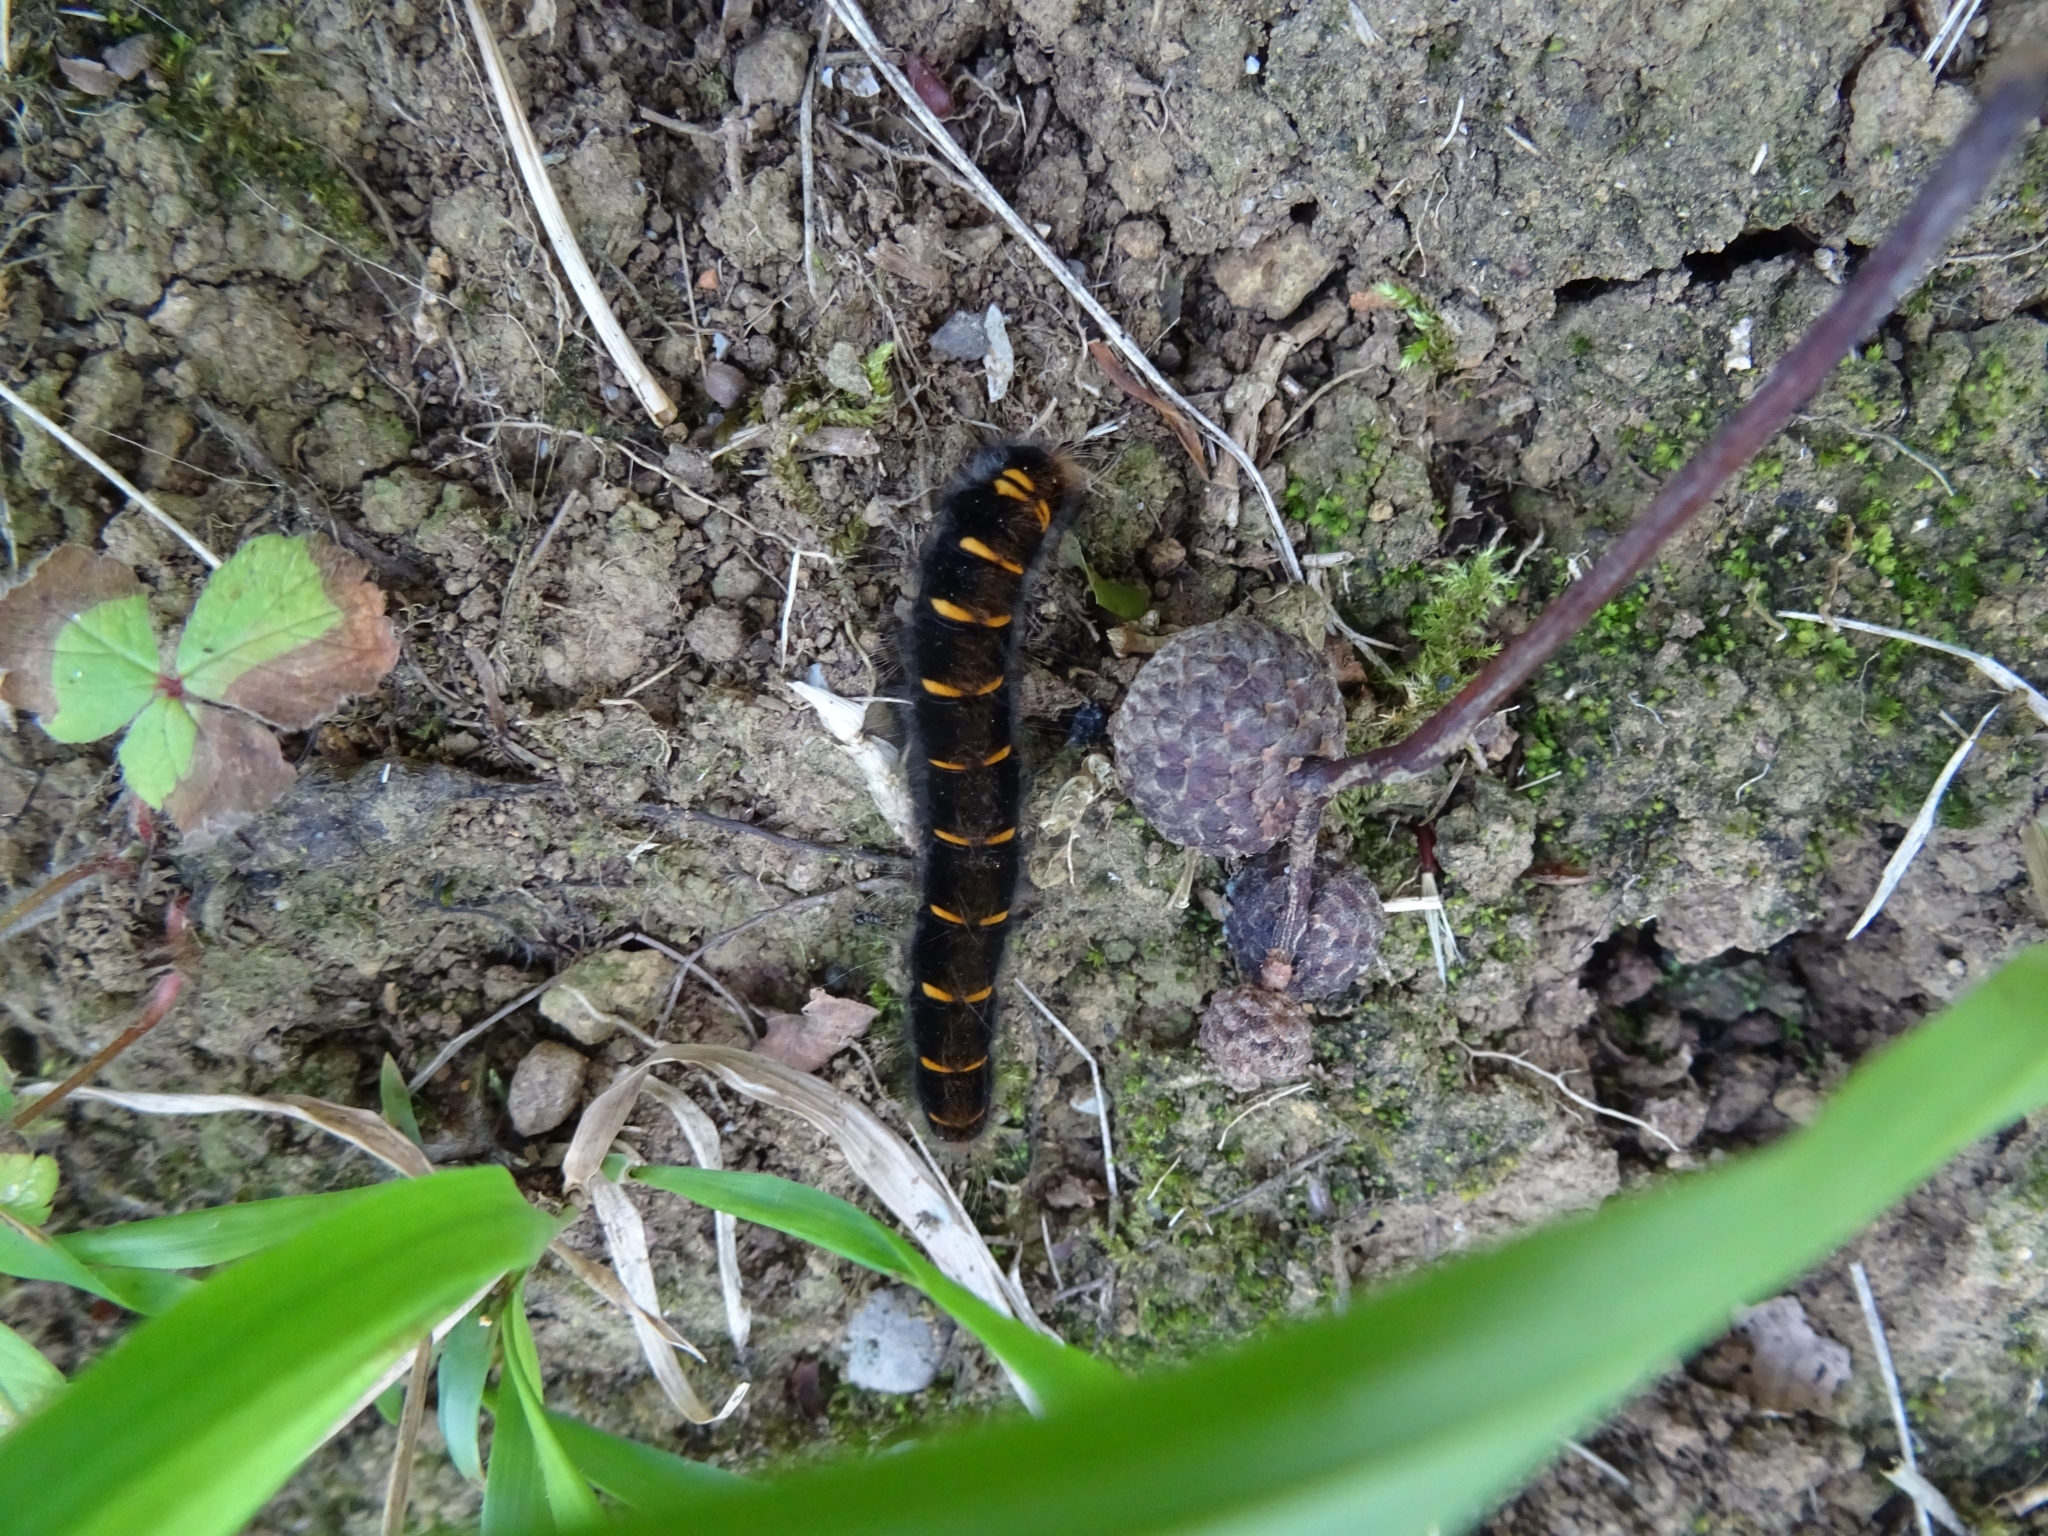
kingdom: Animalia
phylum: Arthropoda
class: Insecta
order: Lepidoptera
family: Lasiocampidae
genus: Macrothylacia
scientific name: Macrothylacia rubi
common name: Fox moth
